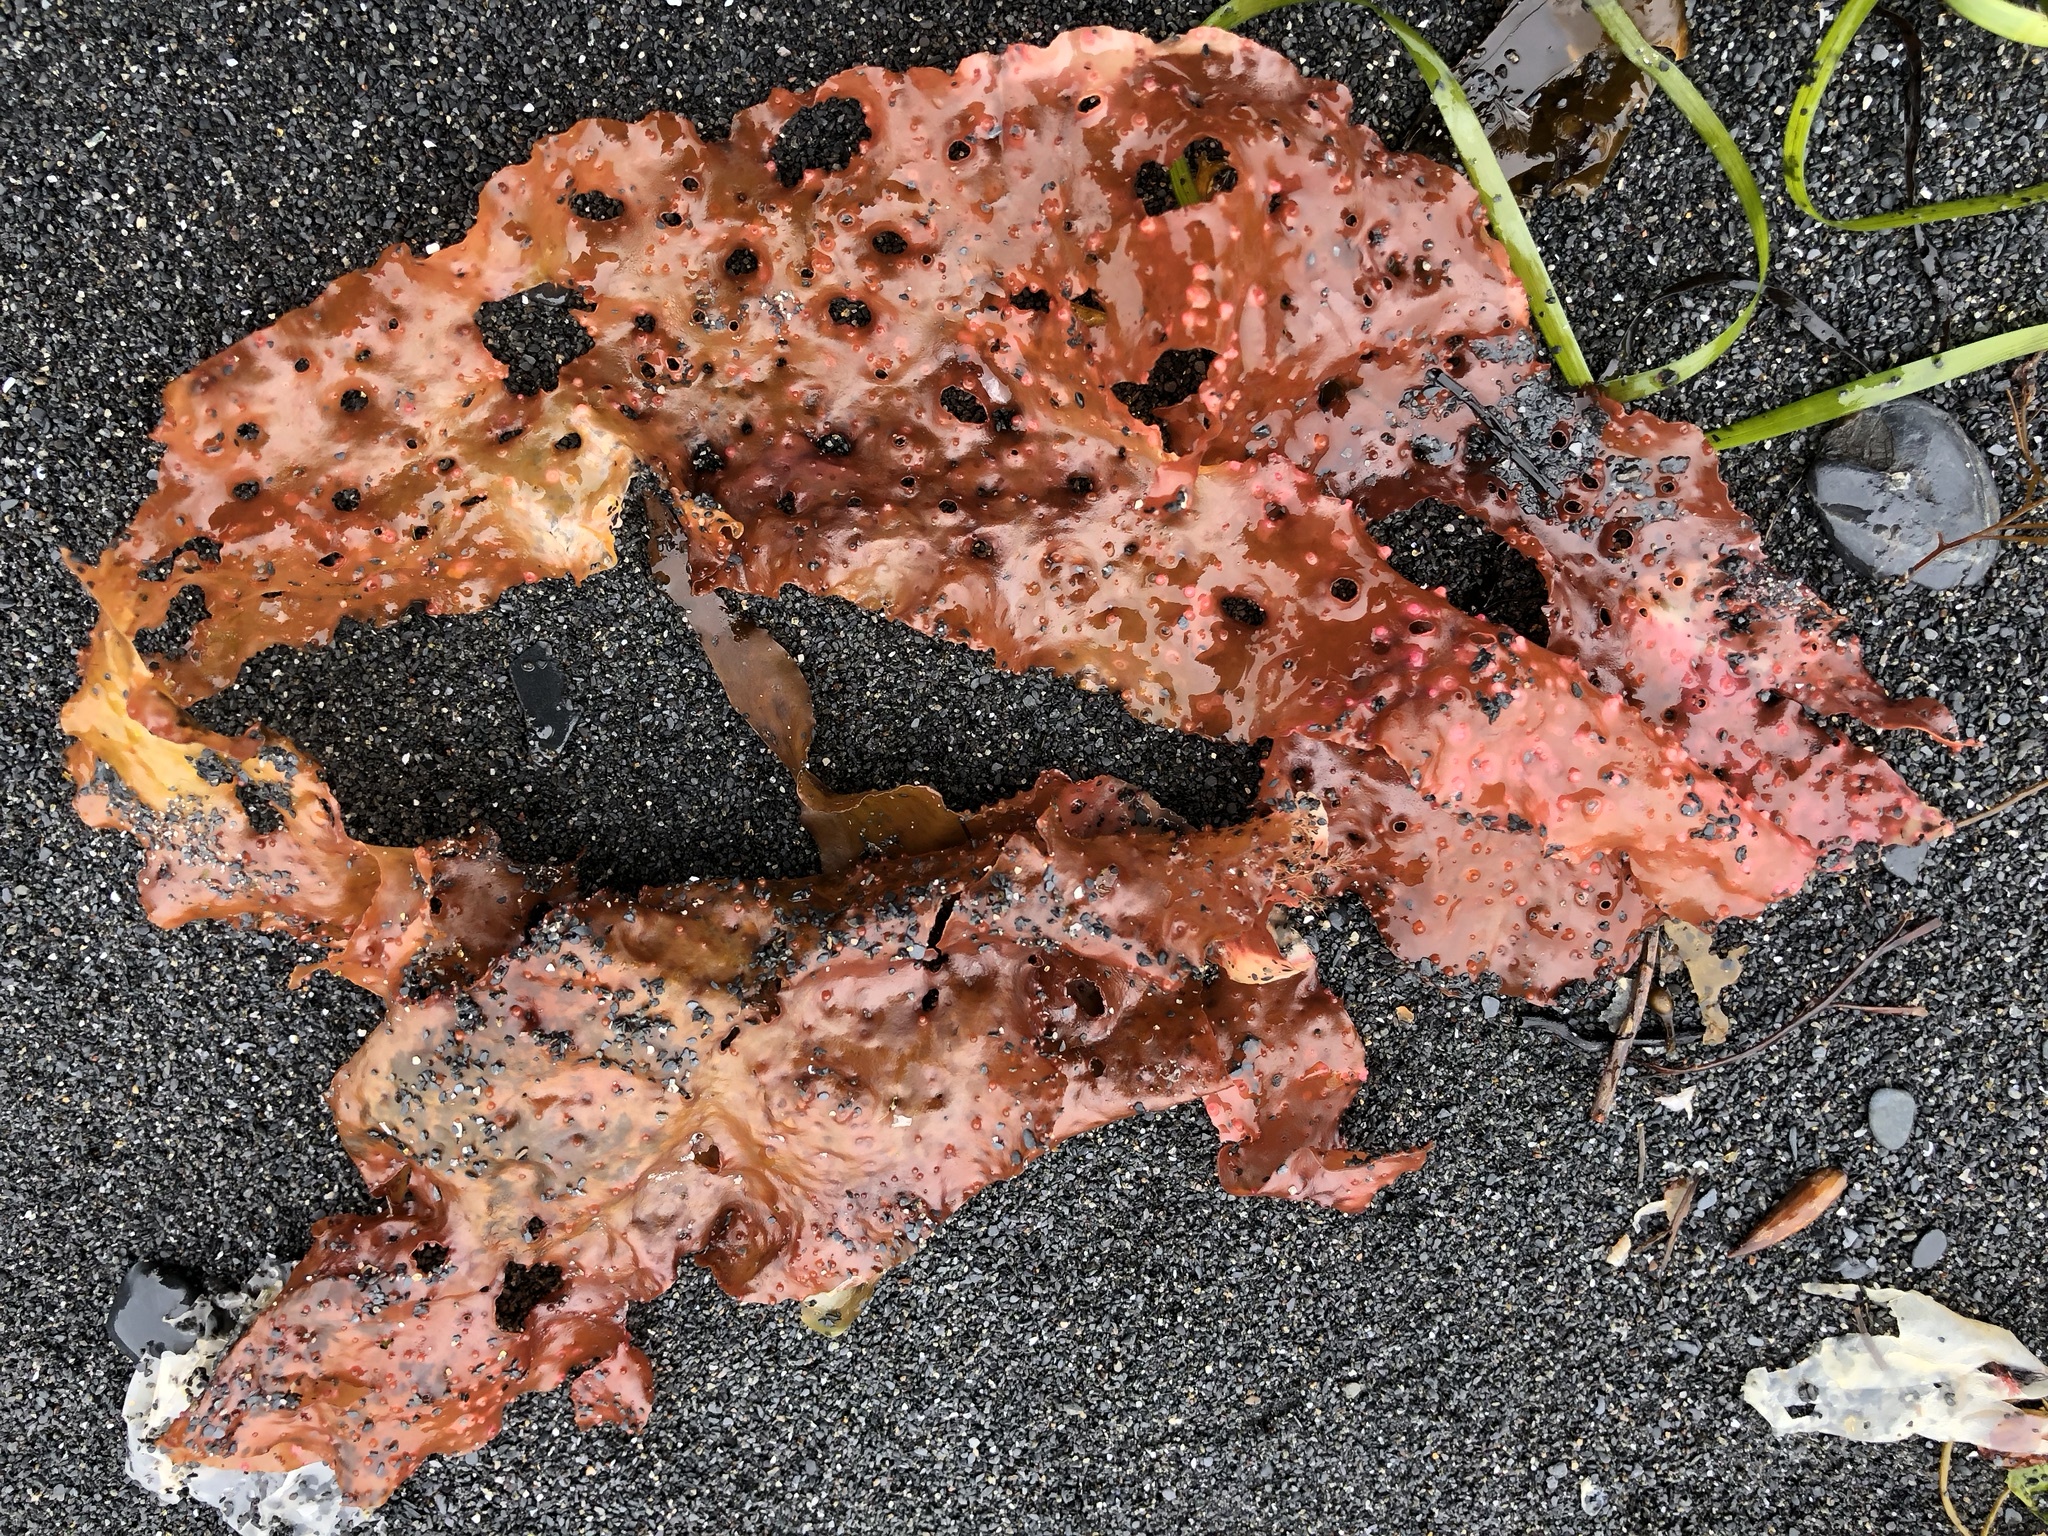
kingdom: Plantae
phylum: Rhodophyta
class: Florideophyceae
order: Rhodymeniales
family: Rhodymeniaceae
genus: Sparlingia
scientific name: Sparlingia pertusa
